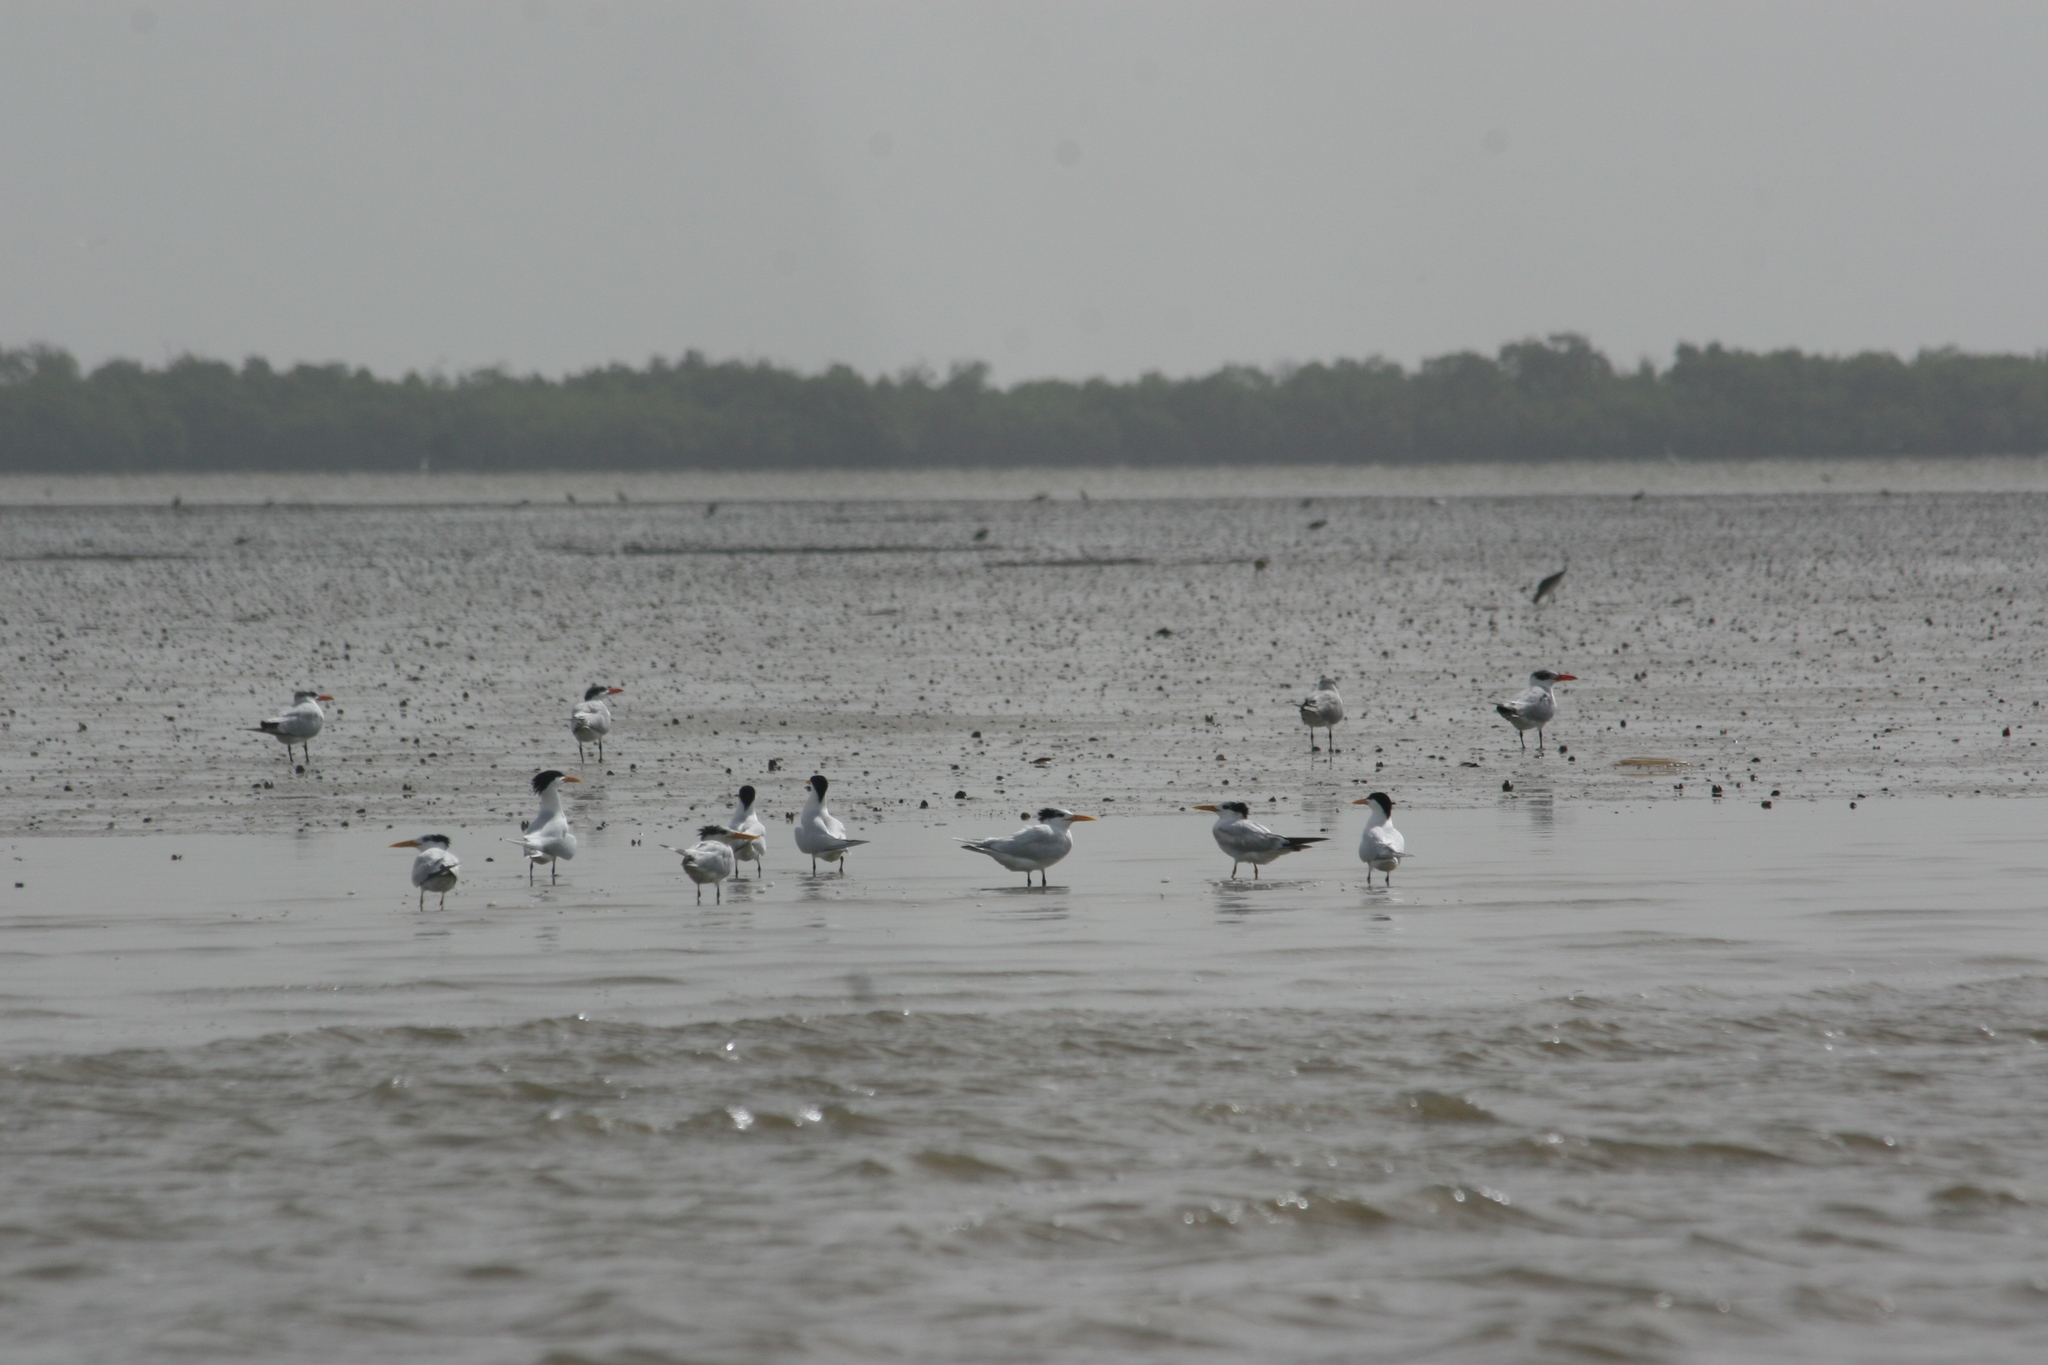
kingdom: Animalia
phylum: Chordata
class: Aves
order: Charadriiformes
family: Laridae
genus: Hydroprogne
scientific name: Hydroprogne caspia
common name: Caspian tern
